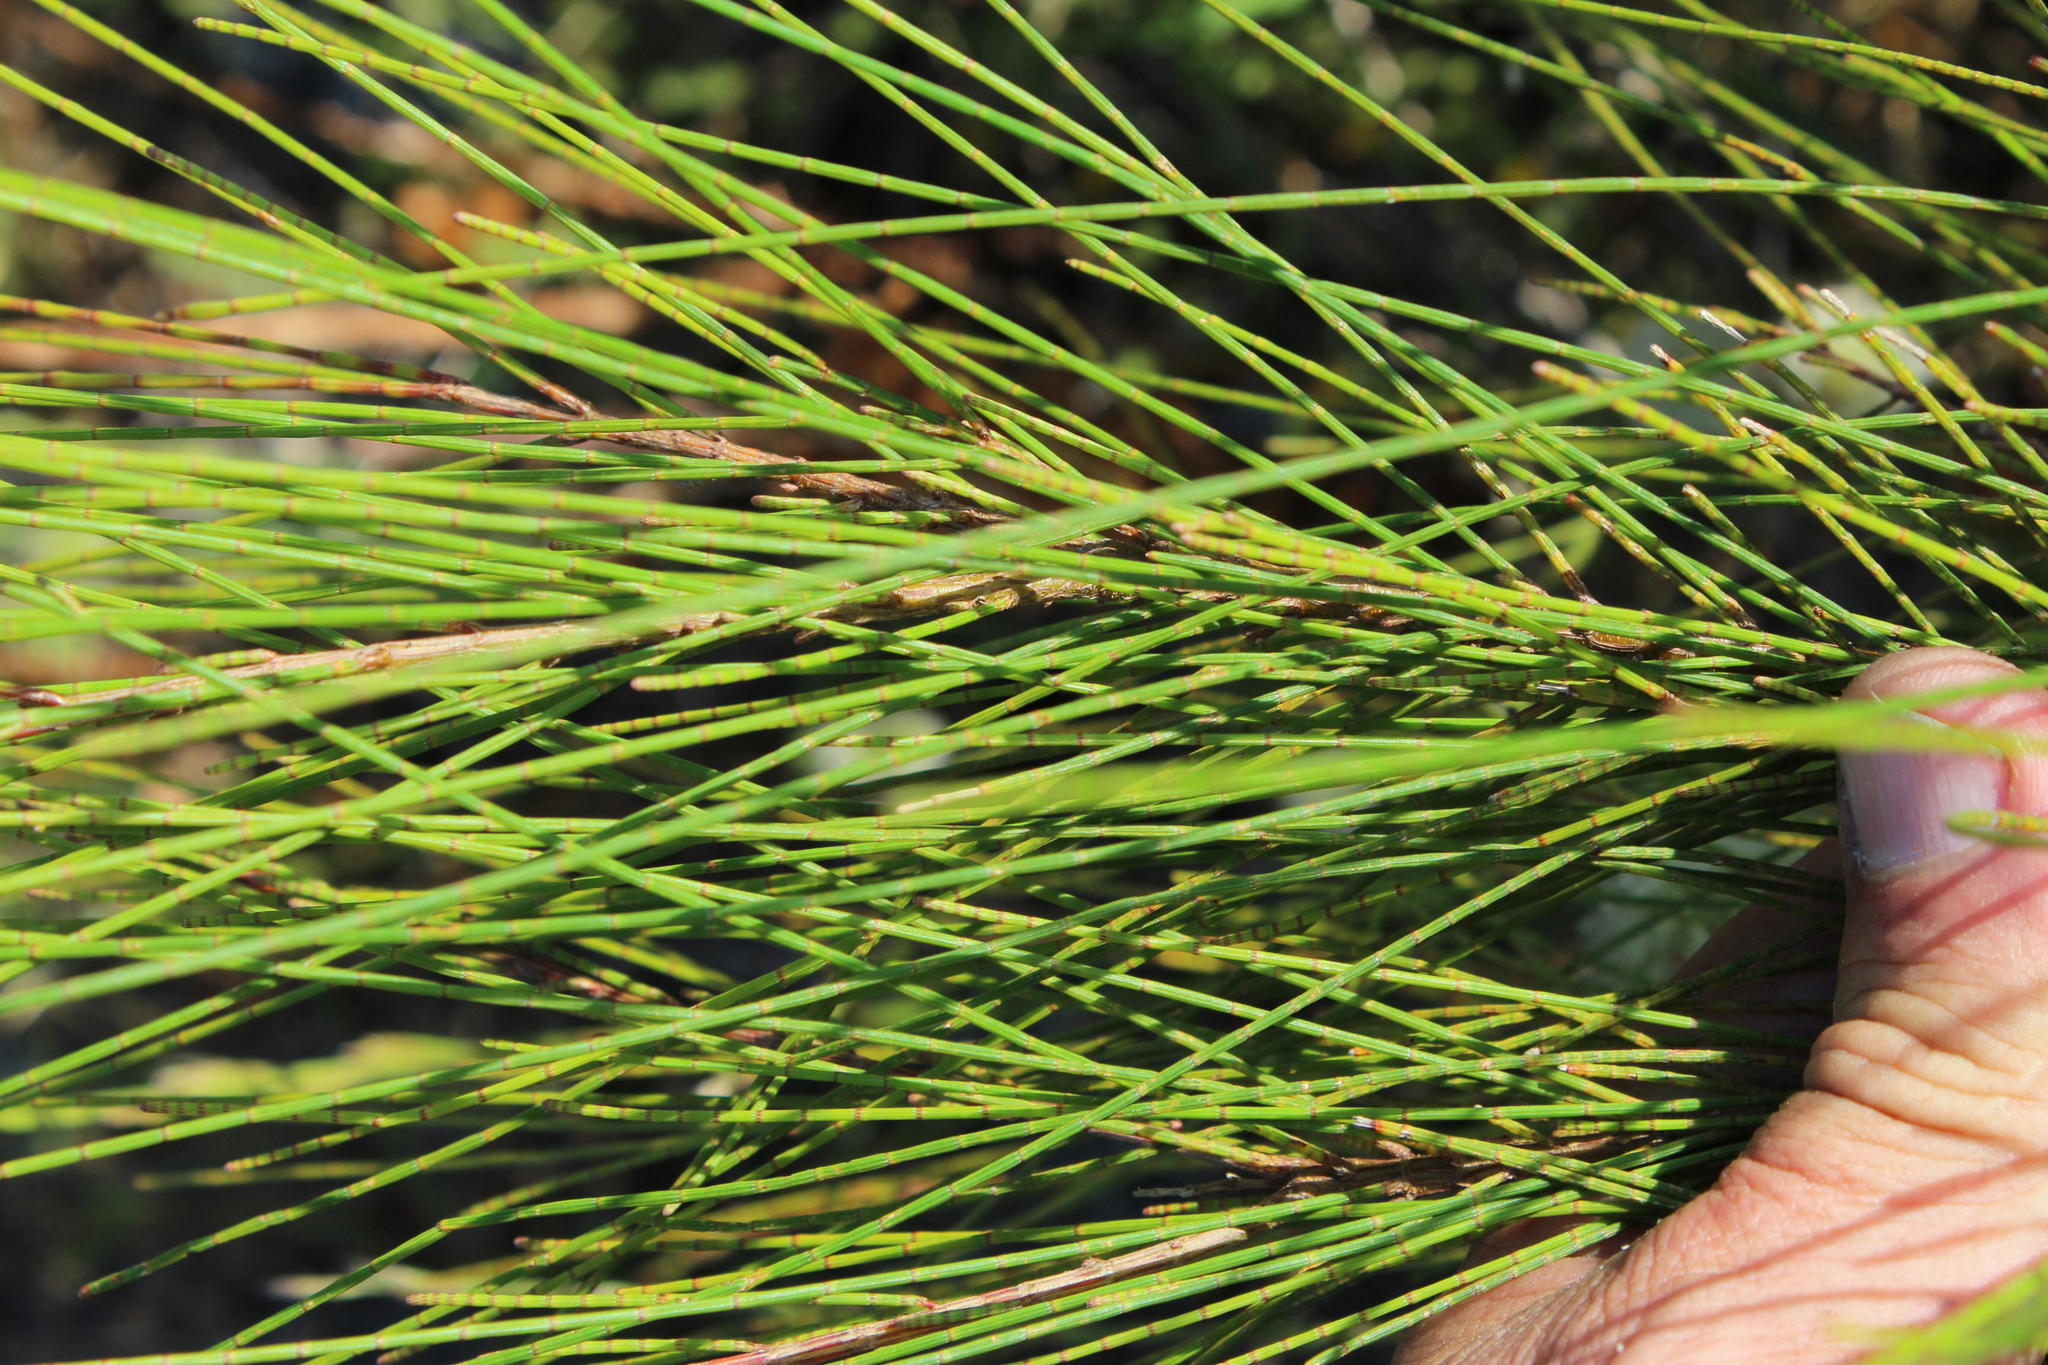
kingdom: Plantae
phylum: Tracheophyta
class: Magnoliopsida
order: Fagales
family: Casuarinaceae
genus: Casuarina
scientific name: Casuarina cunninghamiana
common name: River sheoak
